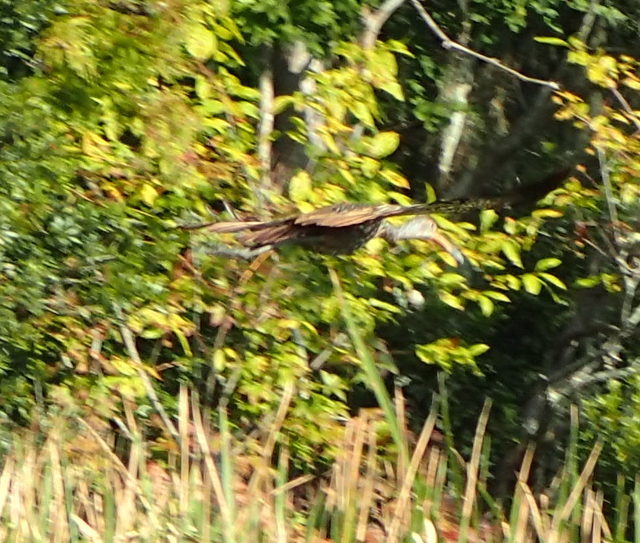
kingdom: Animalia
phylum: Chordata
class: Aves
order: Gruiformes
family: Aramidae
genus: Aramus
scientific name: Aramus guarauna
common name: Limpkin
